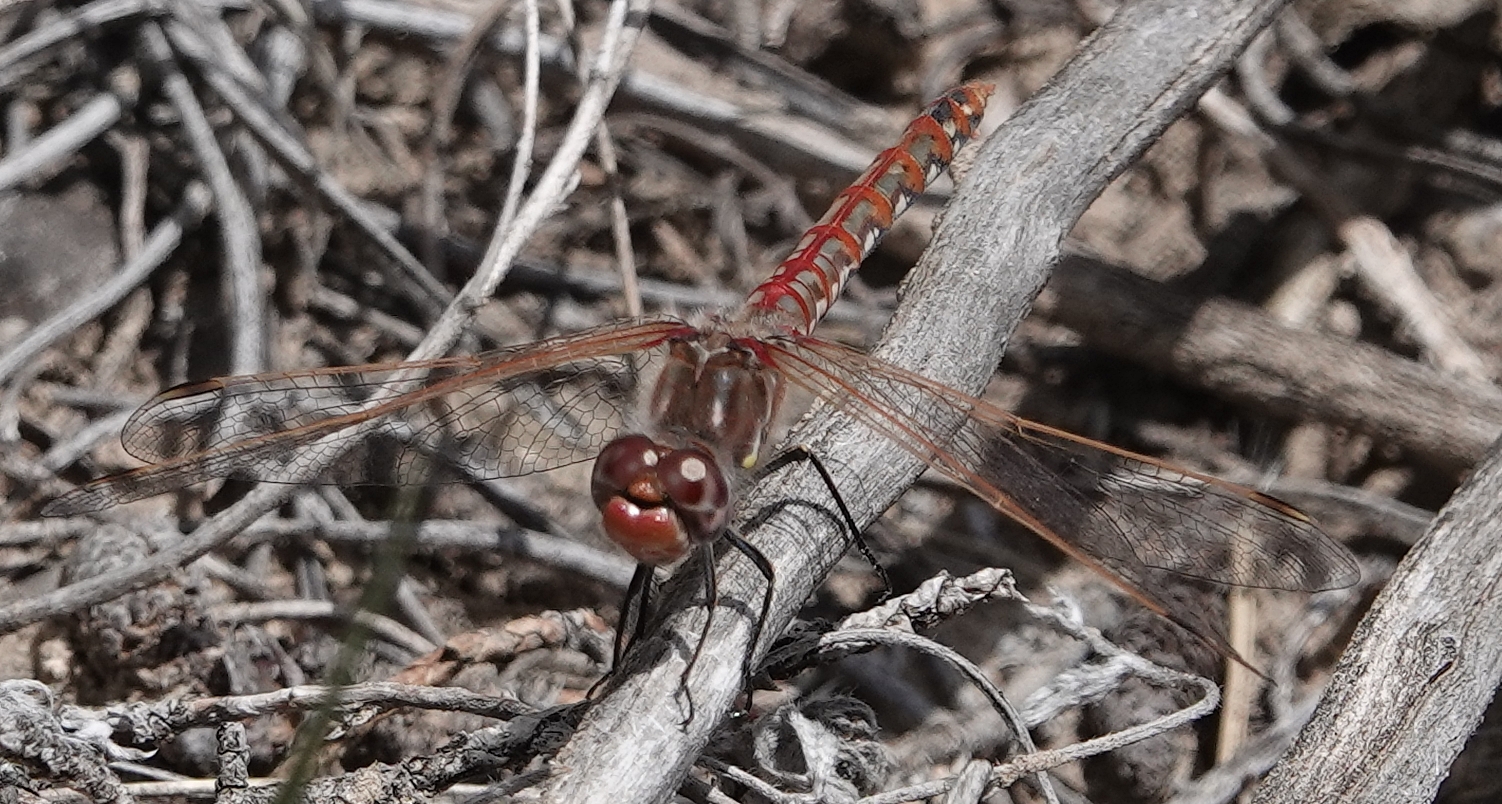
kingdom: Animalia
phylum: Arthropoda
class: Insecta
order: Odonata
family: Libellulidae
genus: Sympetrum
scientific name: Sympetrum corruptum
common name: Variegated meadowhawk
